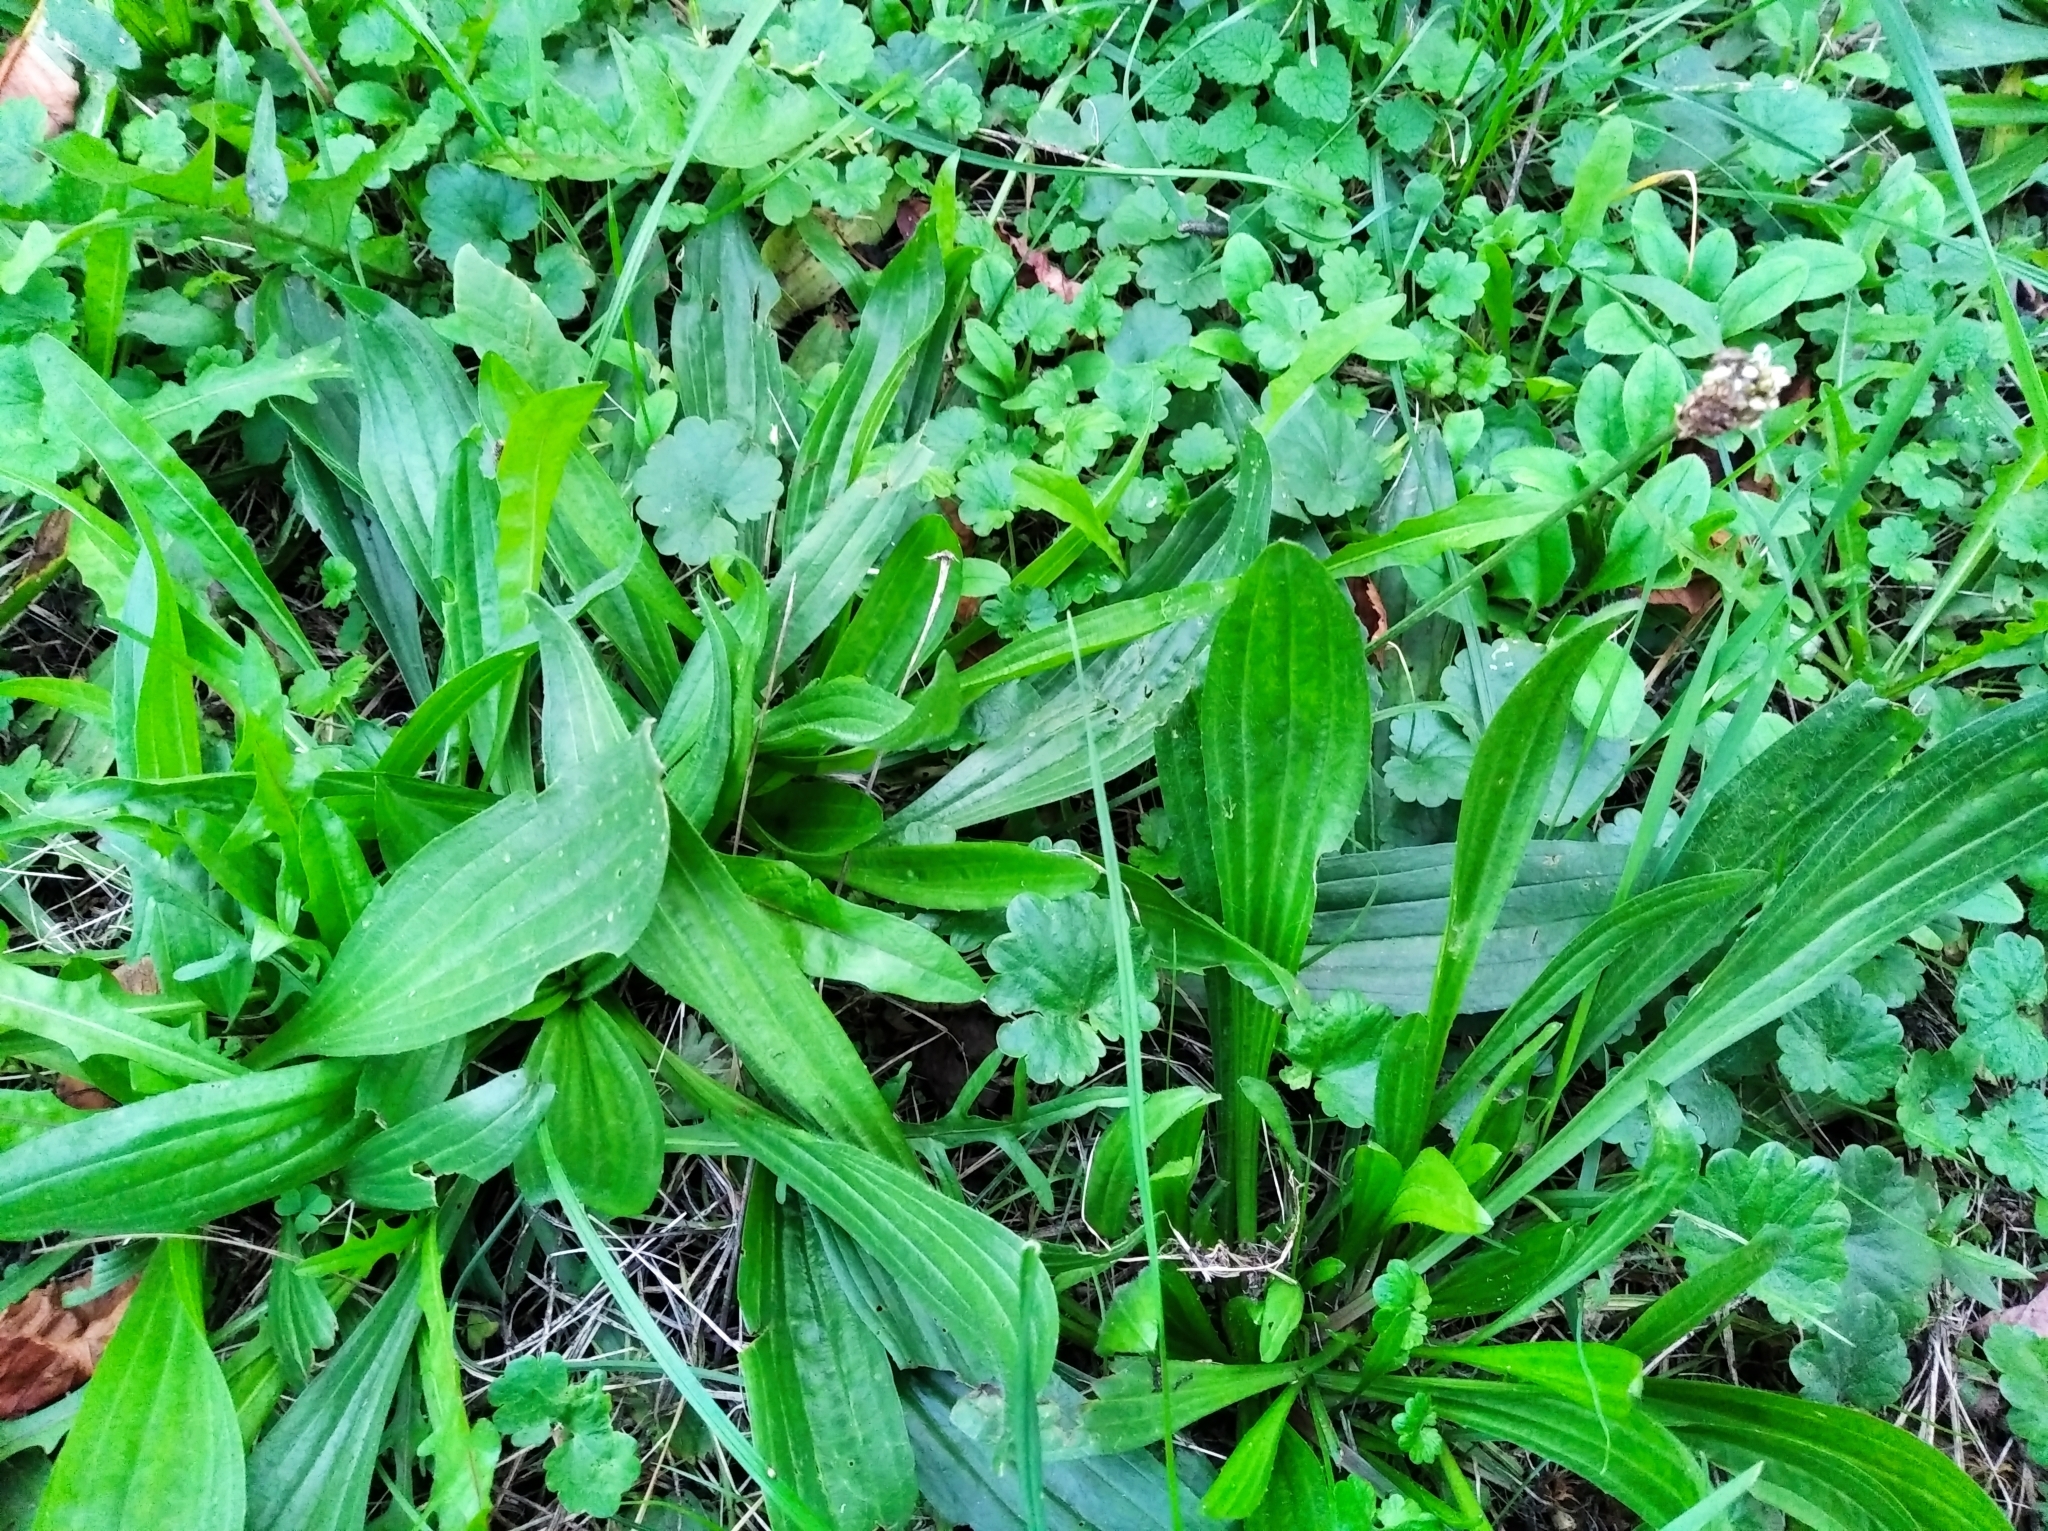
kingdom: Plantae
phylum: Tracheophyta
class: Magnoliopsida
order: Lamiales
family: Plantaginaceae
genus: Plantago
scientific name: Plantago lanceolata
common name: Ribwort plantain
